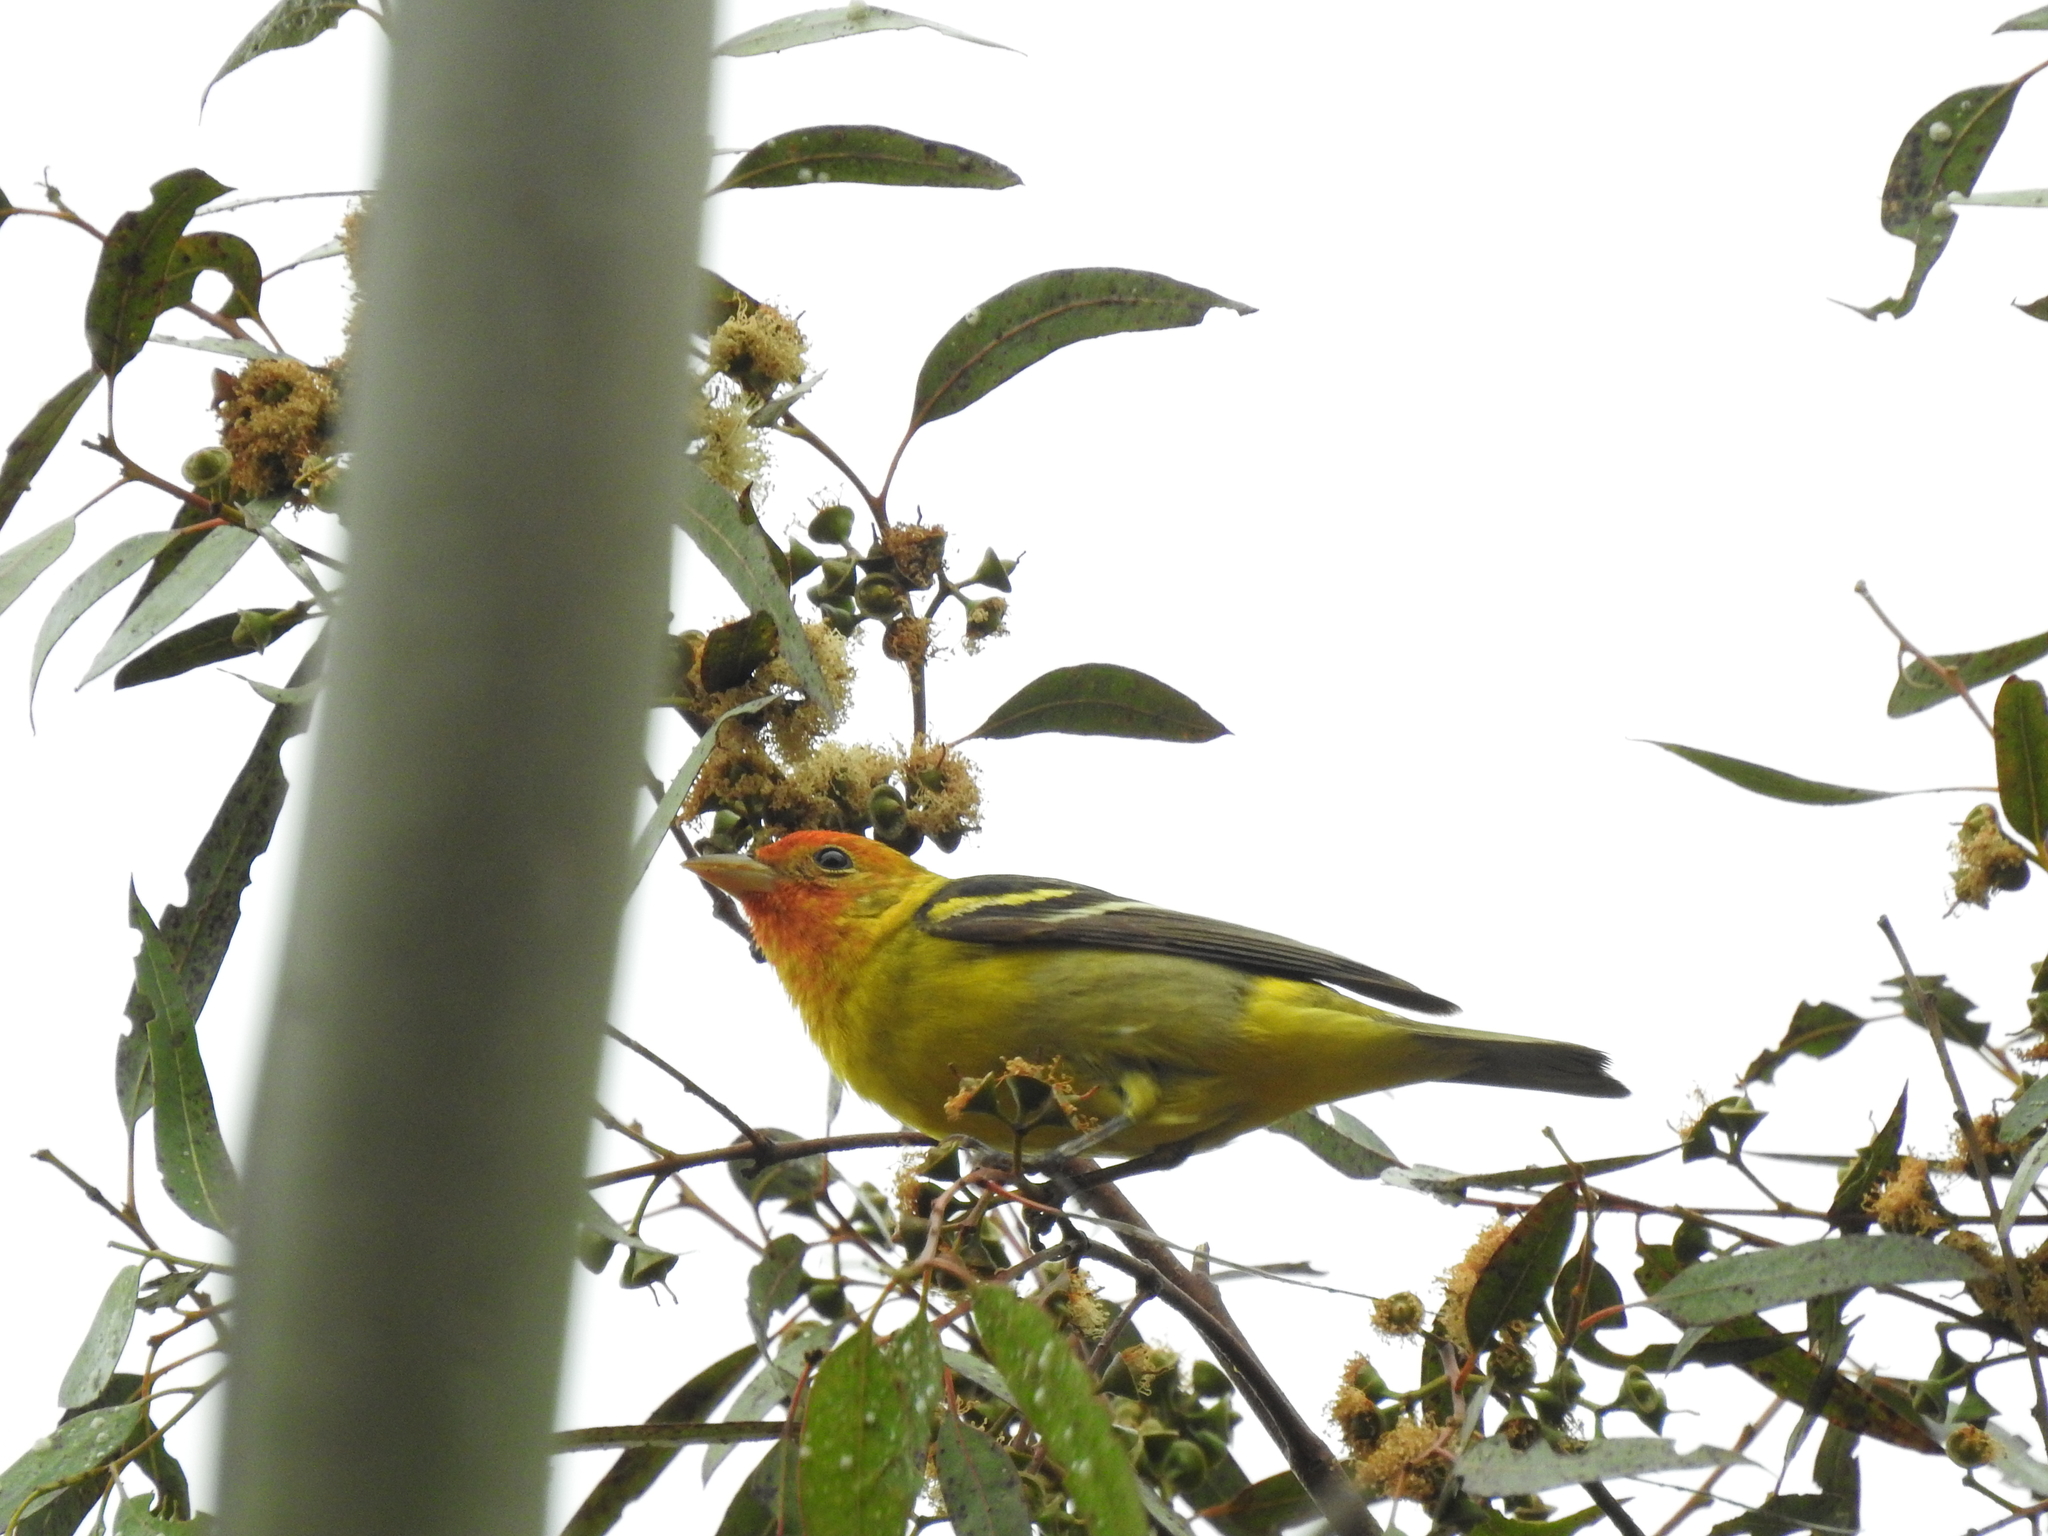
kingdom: Animalia
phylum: Chordata
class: Aves
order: Passeriformes
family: Cardinalidae
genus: Piranga
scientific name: Piranga ludoviciana
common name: Western tanager
